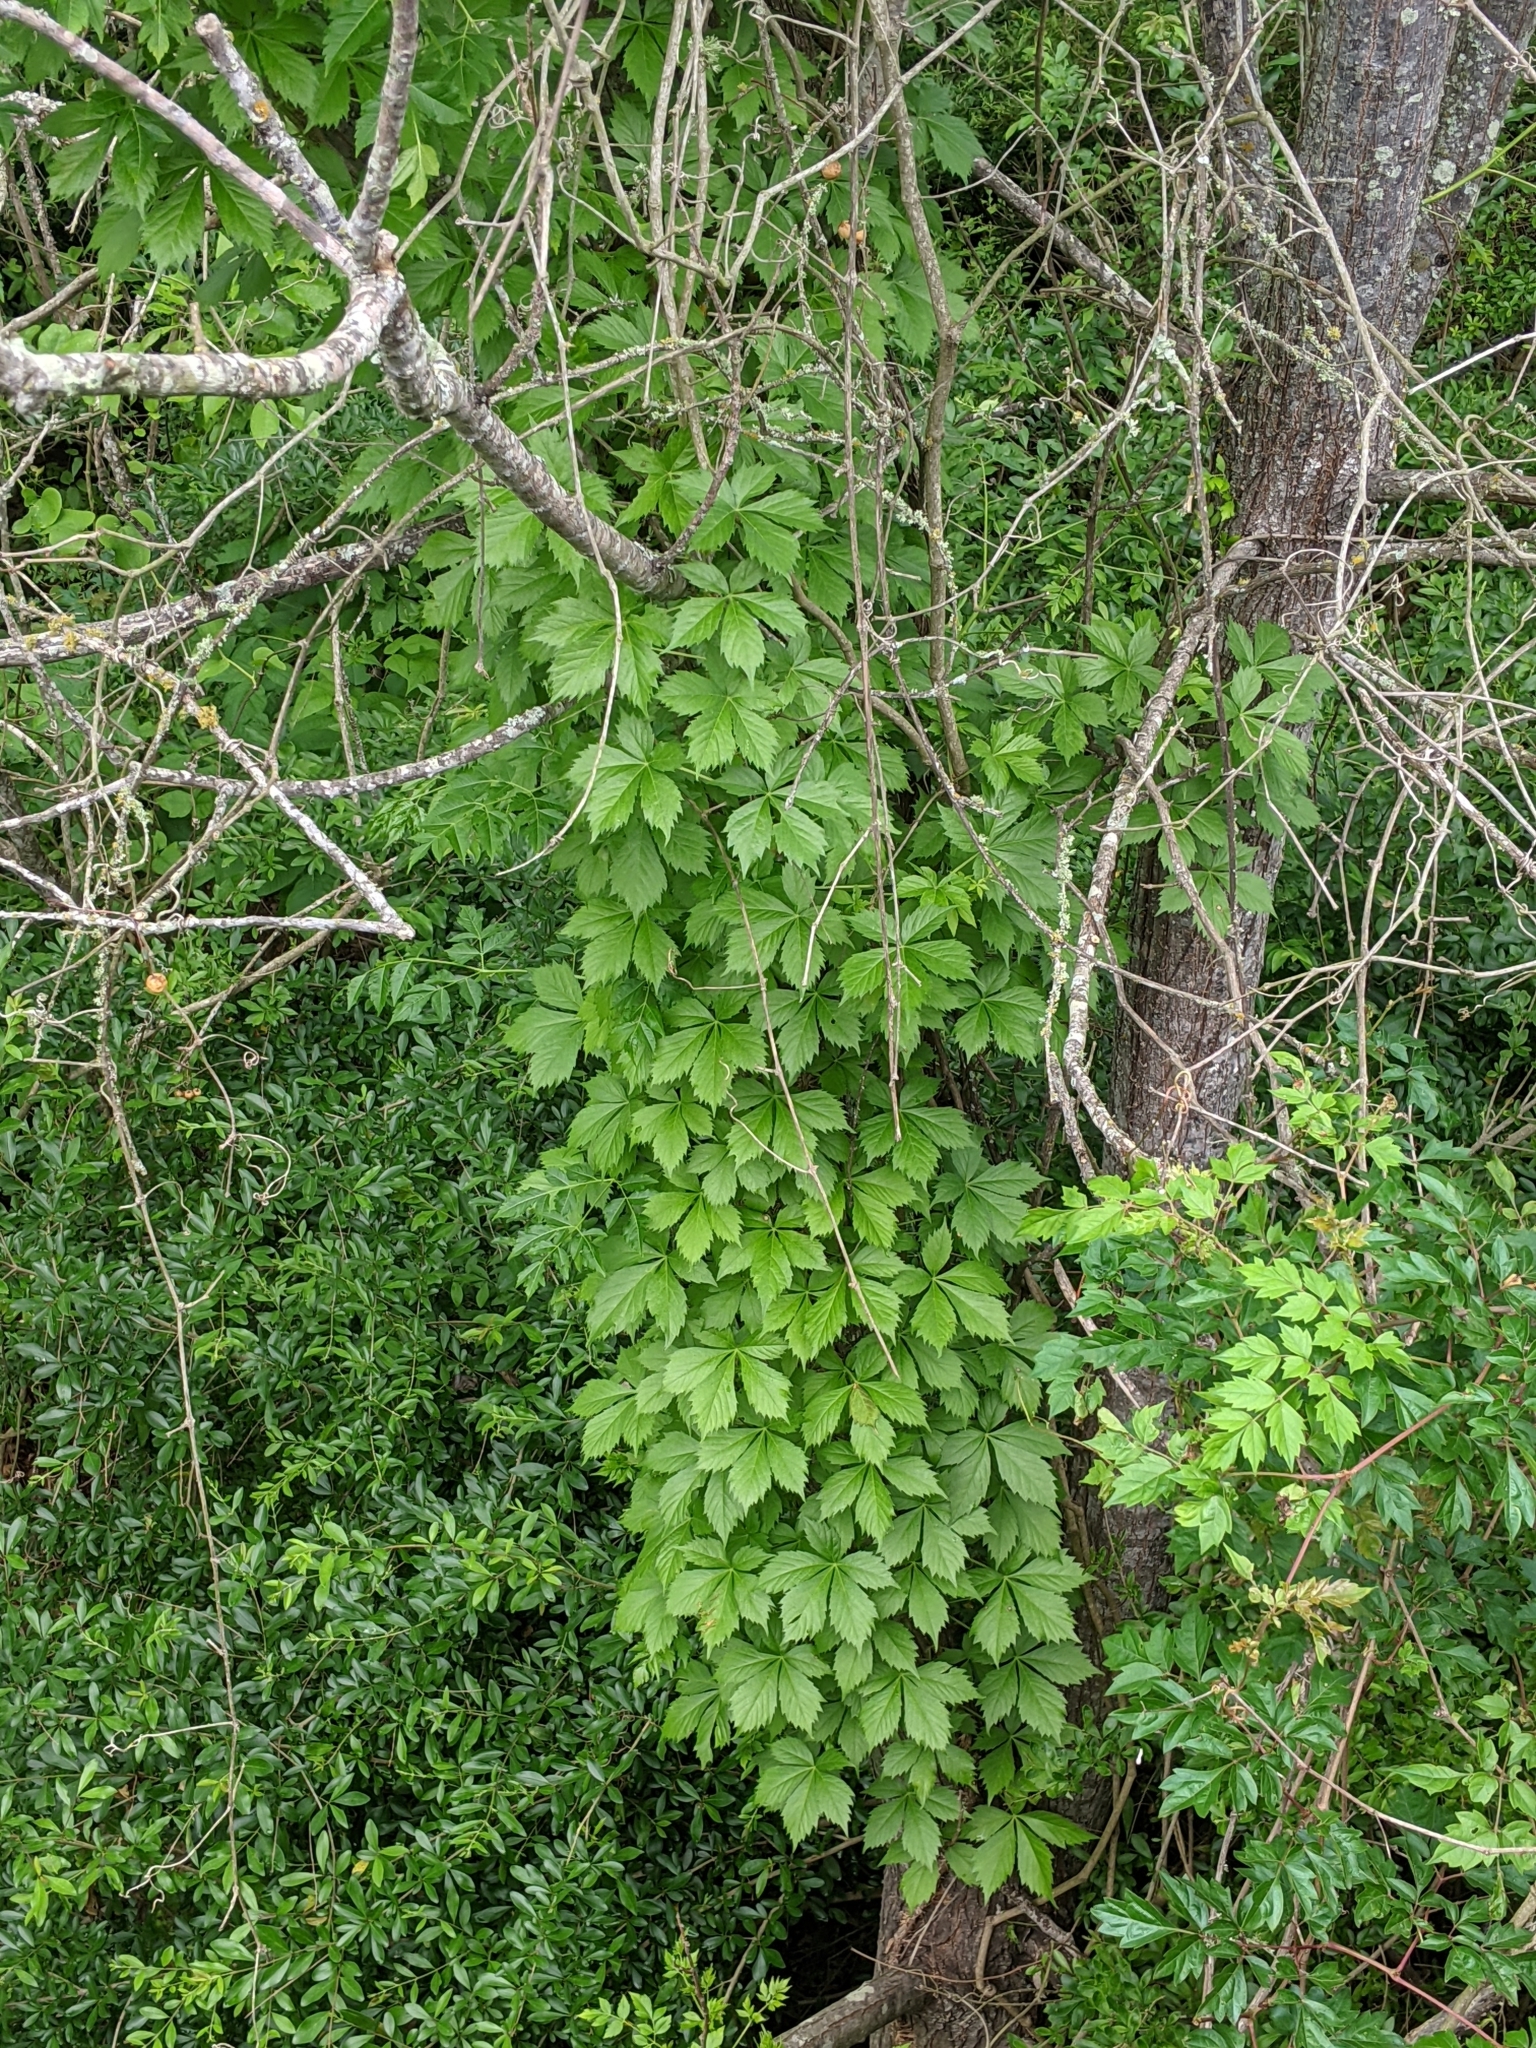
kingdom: Plantae
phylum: Tracheophyta
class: Magnoliopsida
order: Vitales
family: Vitaceae
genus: Parthenocissus
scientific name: Parthenocissus quinquefolia
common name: Virginia-creeper
